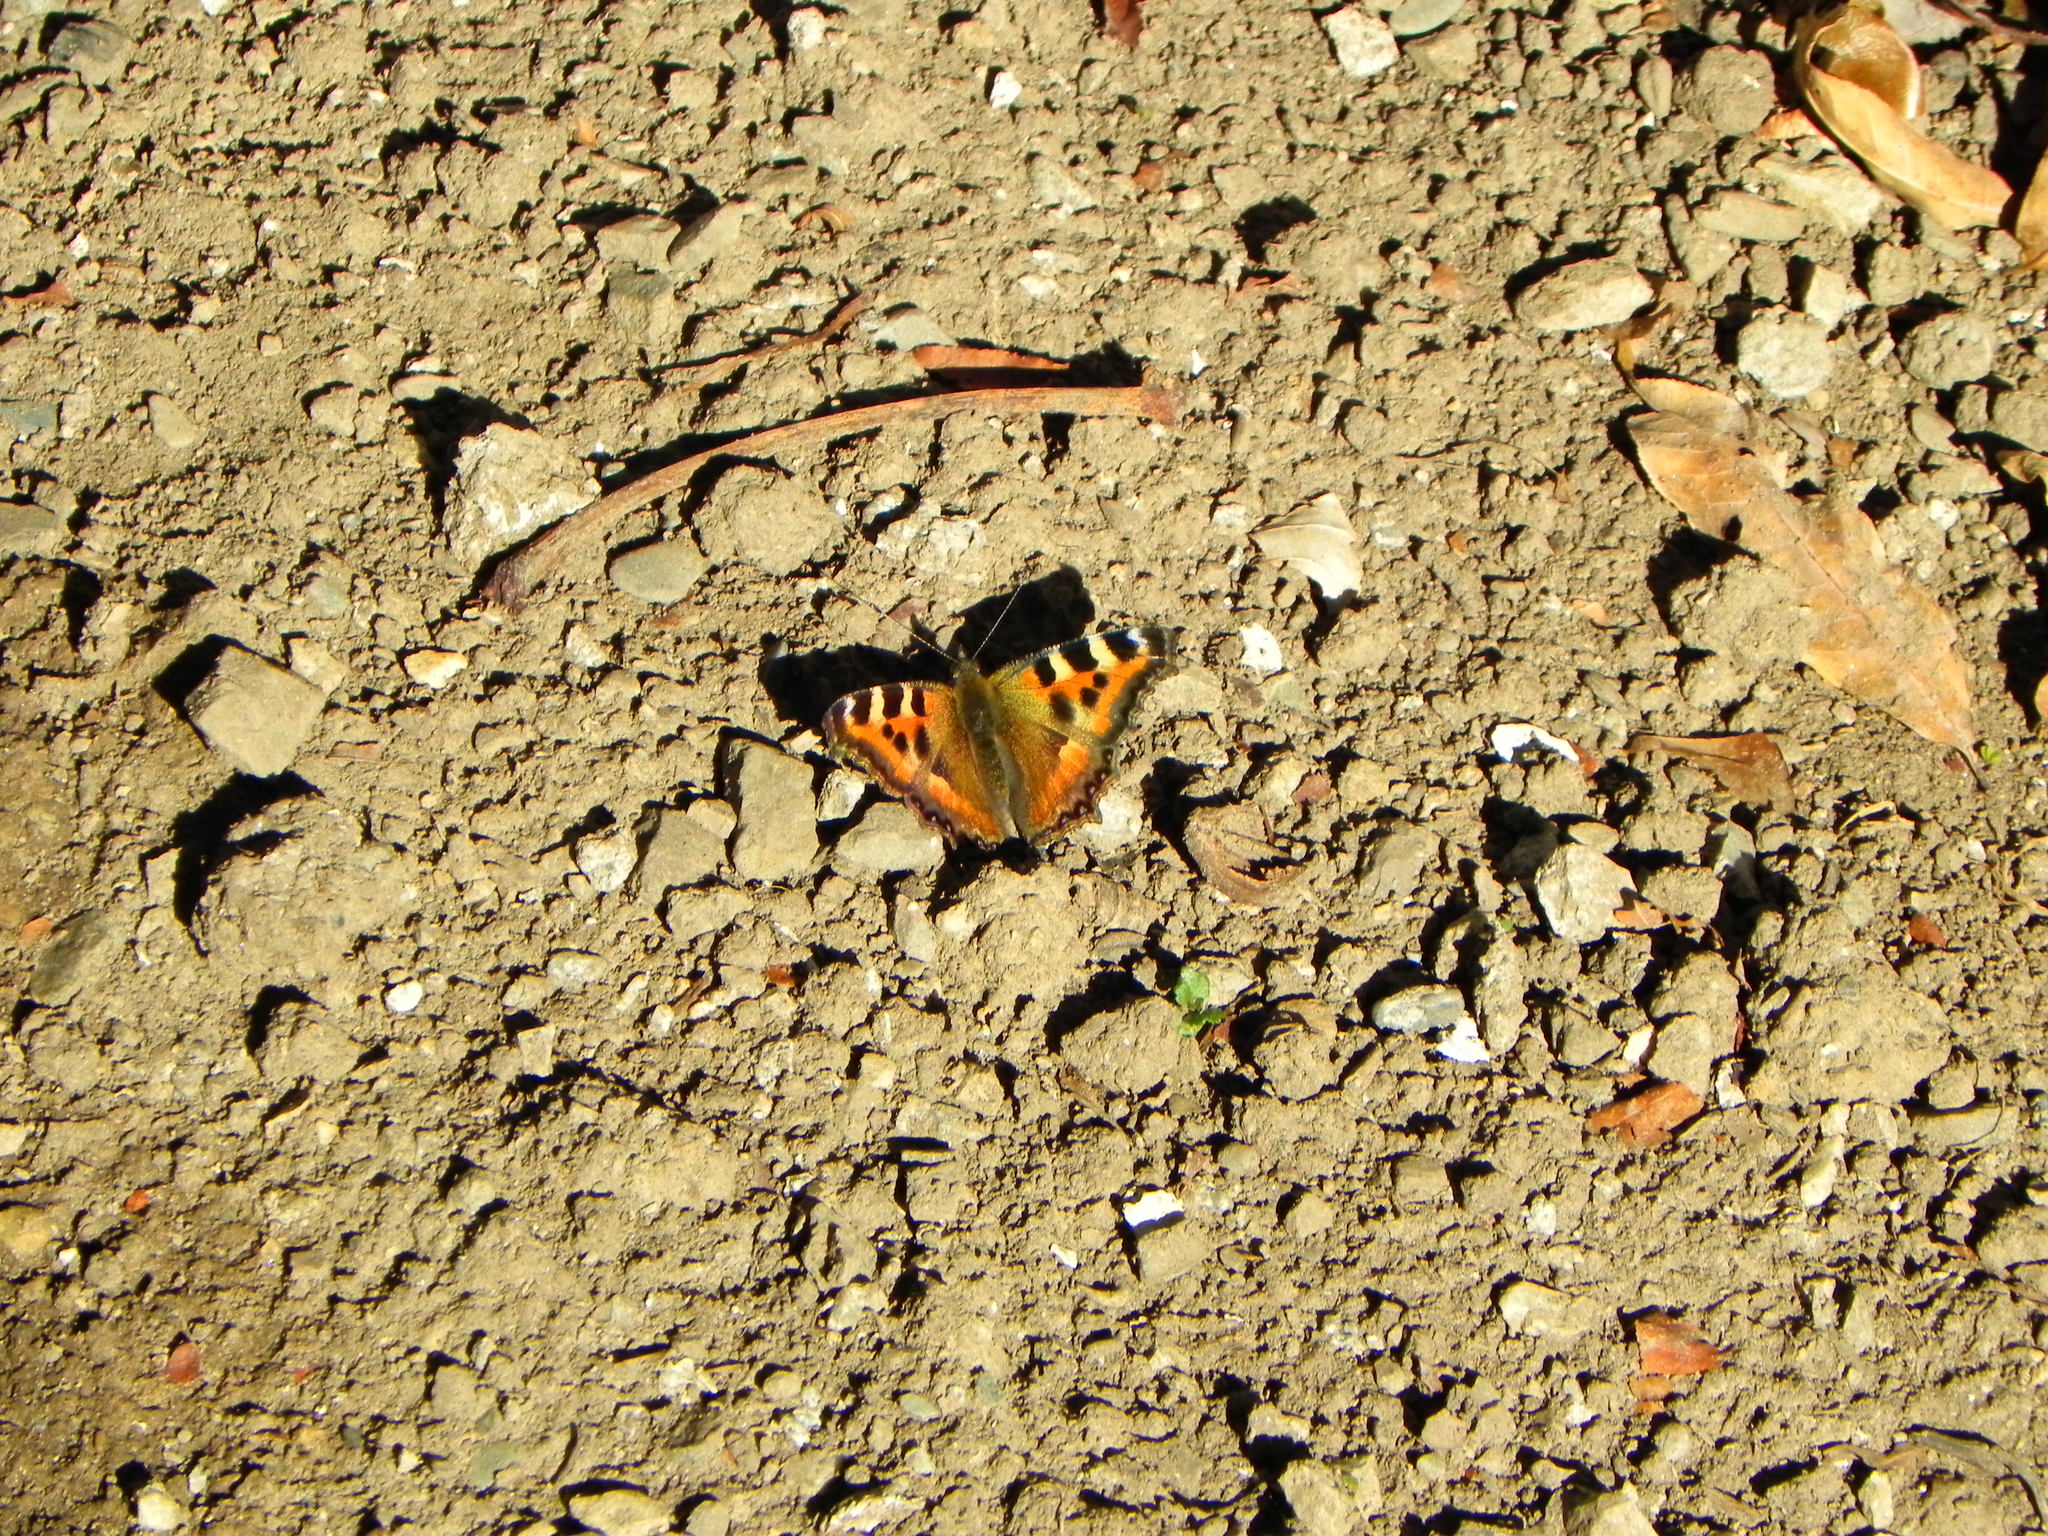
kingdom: Animalia
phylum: Arthropoda
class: Insecta
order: Lepidoptera
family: Nymphalidae
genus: Aglais
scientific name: Aglais caschmirensis
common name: Indian tortoiseshell
